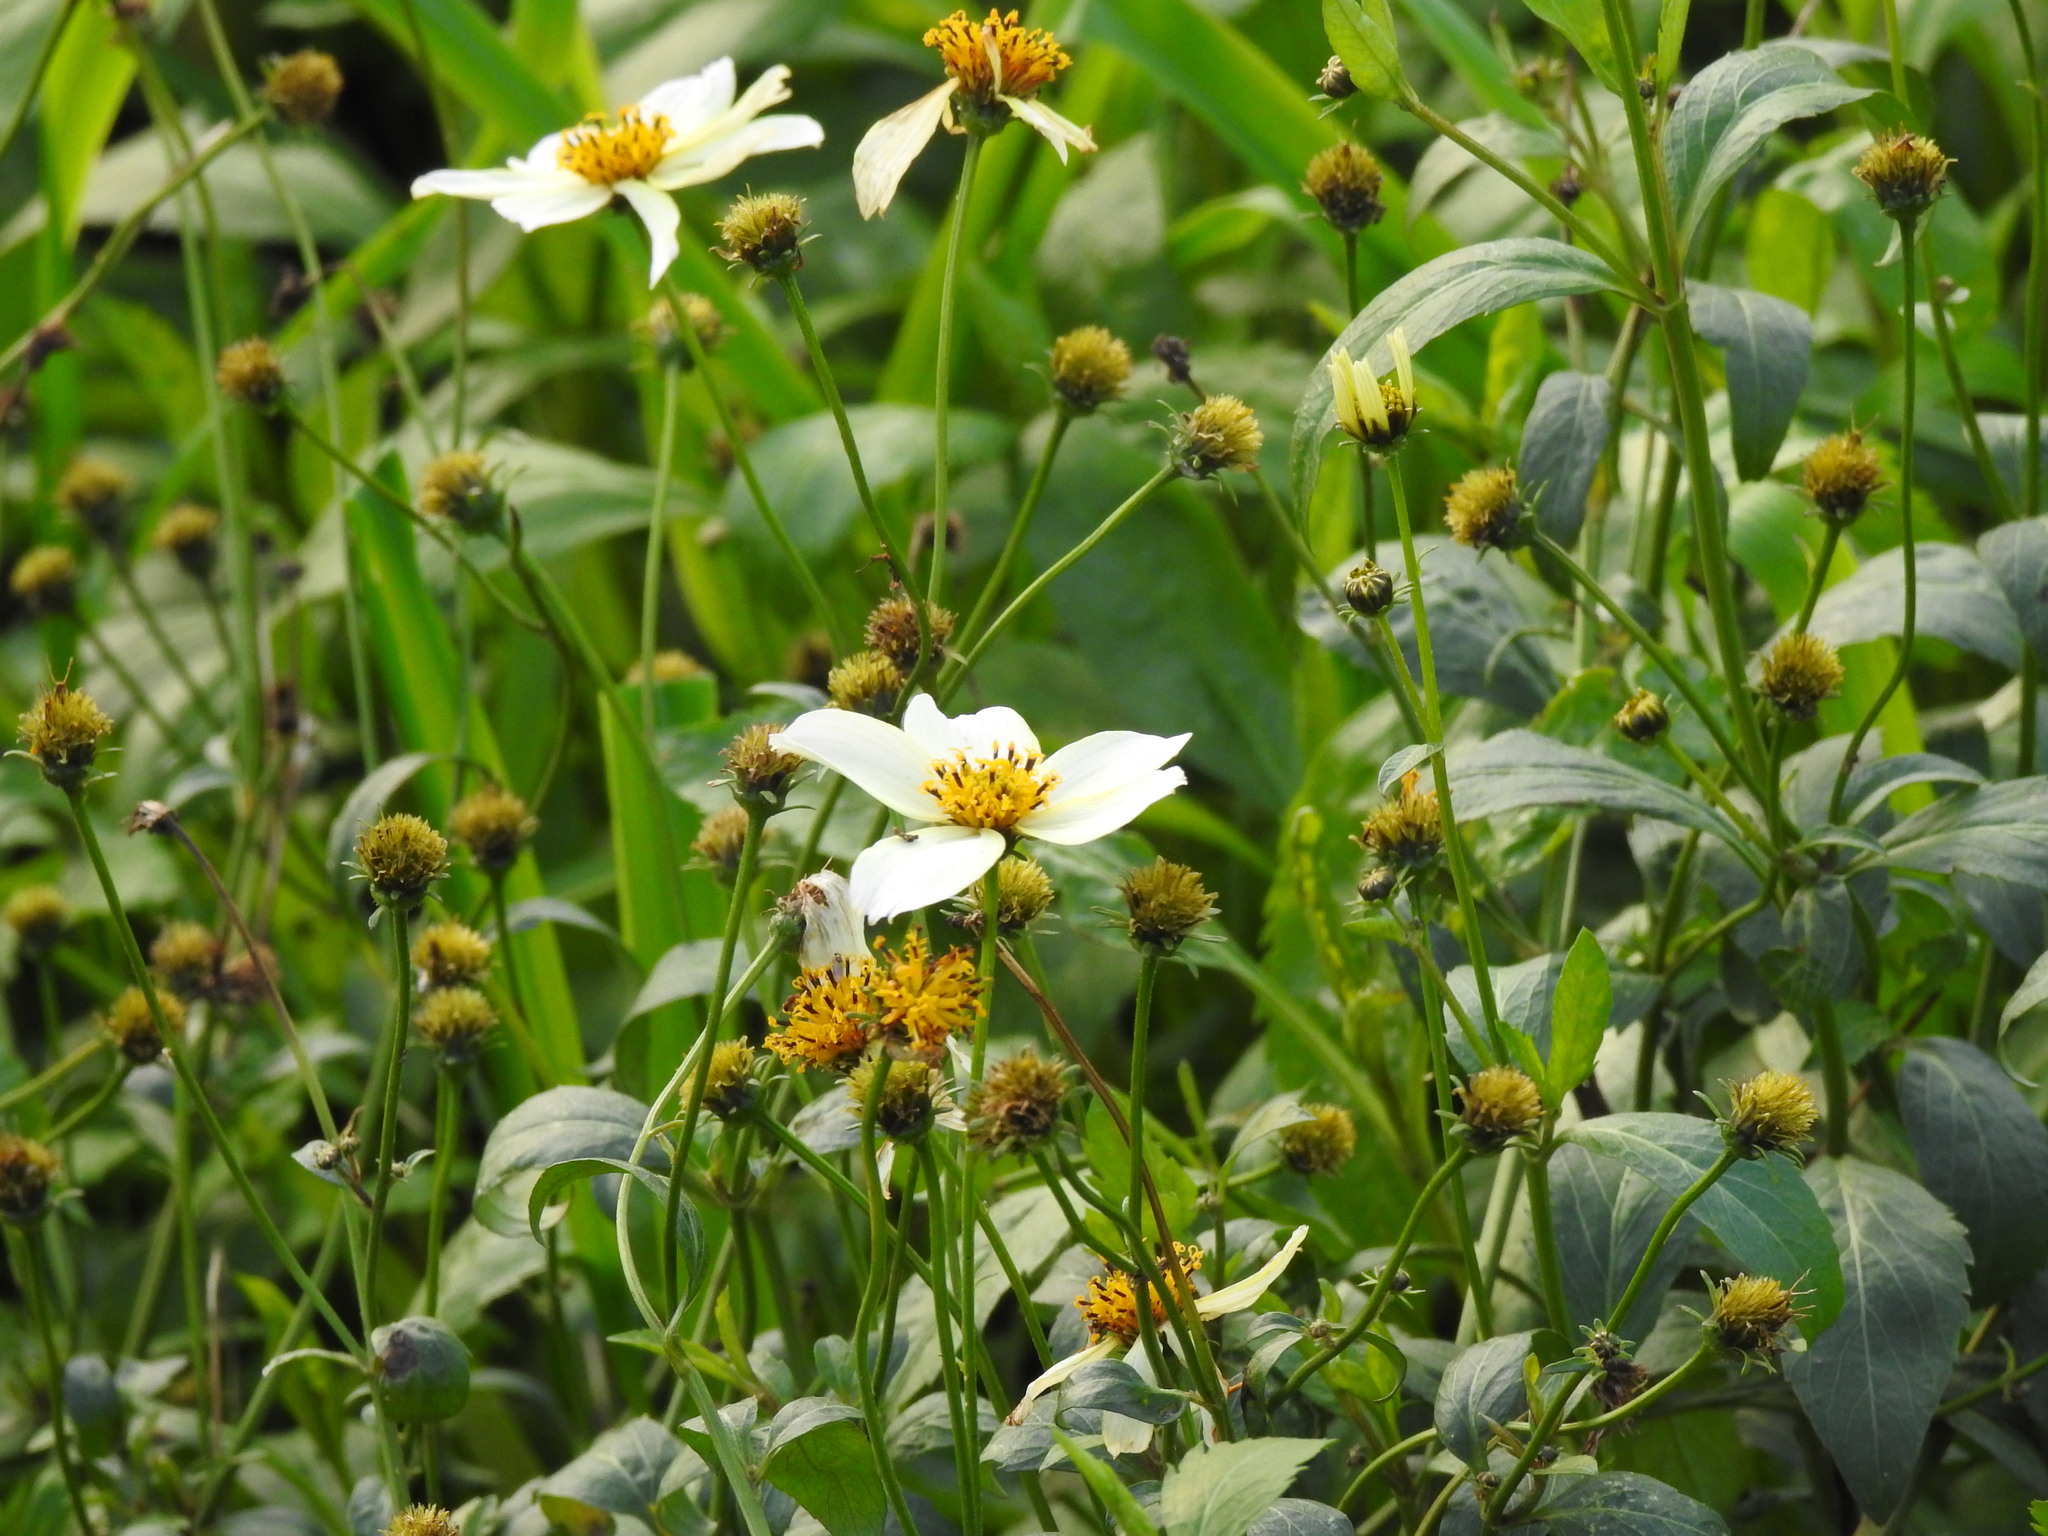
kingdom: Plantae
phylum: Tracheophyta
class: Magnoliopsida
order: Asterales
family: Asteraceae
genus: Bidens
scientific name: Bidens aurea
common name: Arizona beggar-ticks
